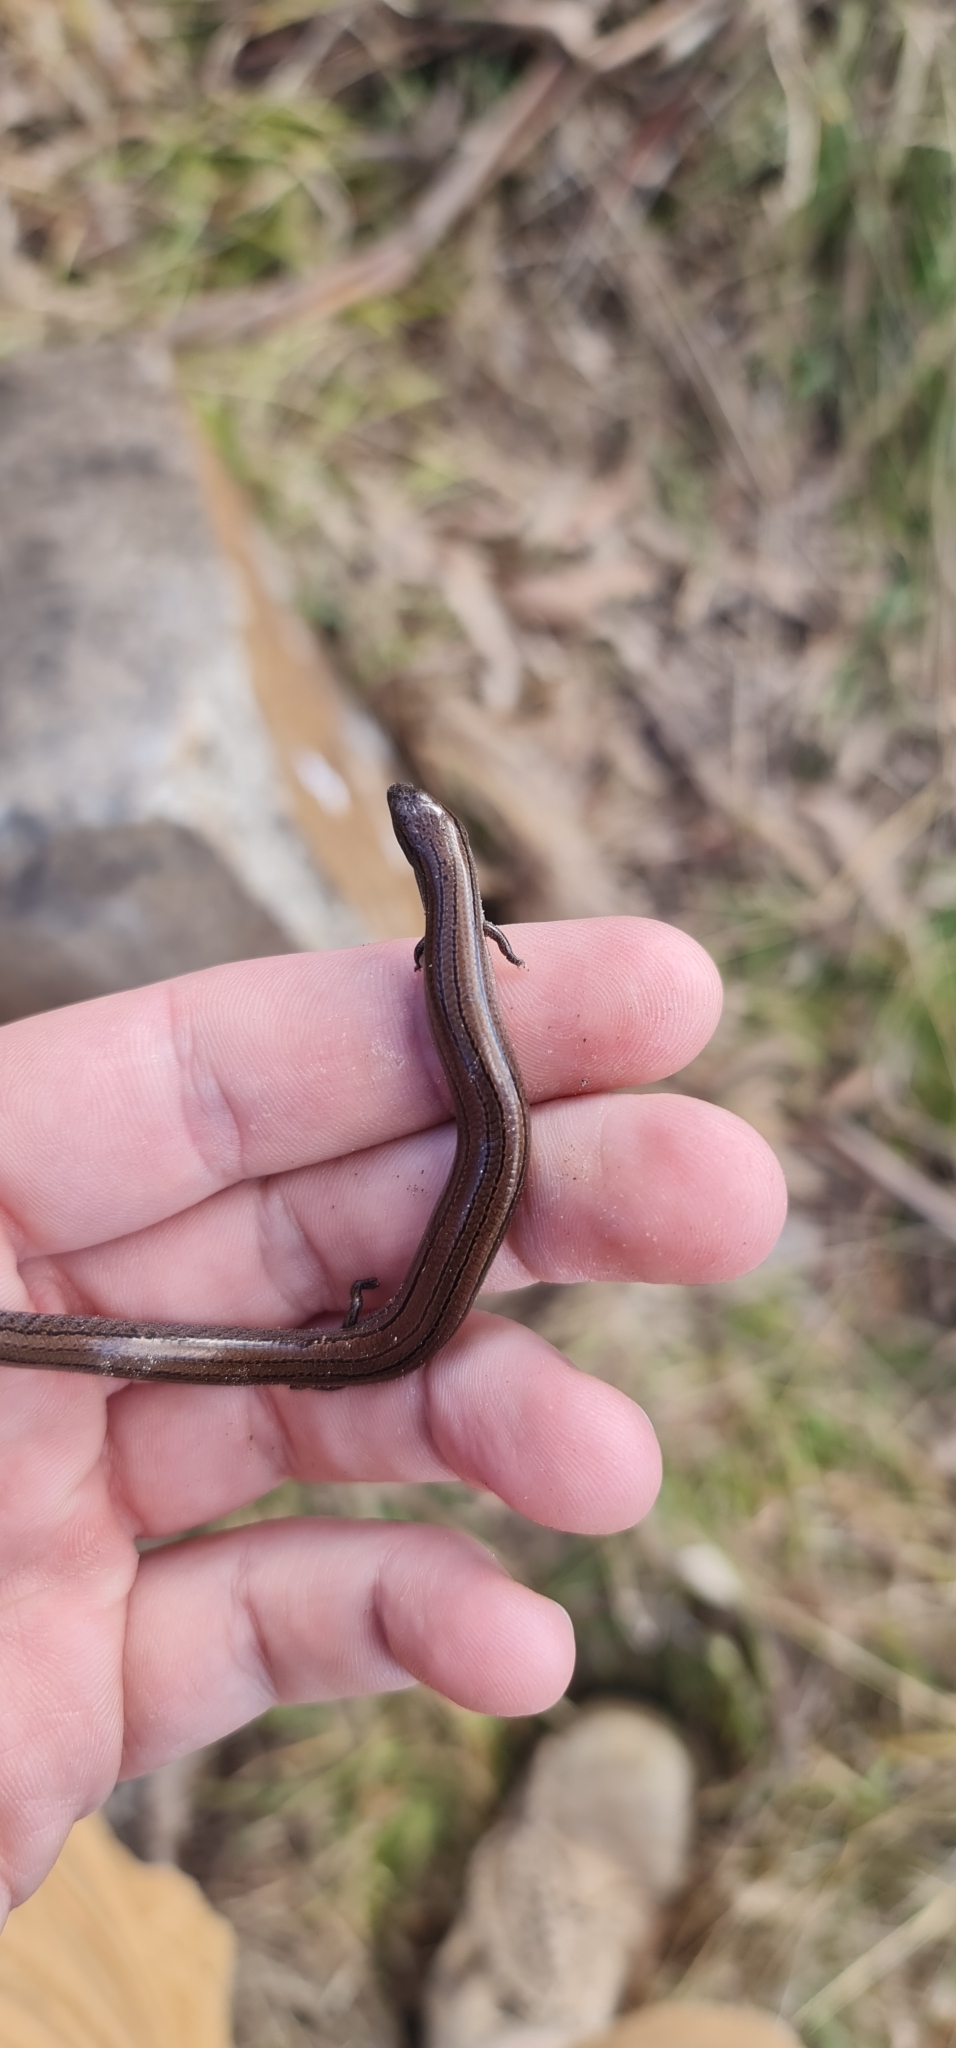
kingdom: Animalia
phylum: Chordata
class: Squamata
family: Scincidae
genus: Hemiergis
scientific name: Hemiergis talbingoensis
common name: Victoria three-toed earless skink
